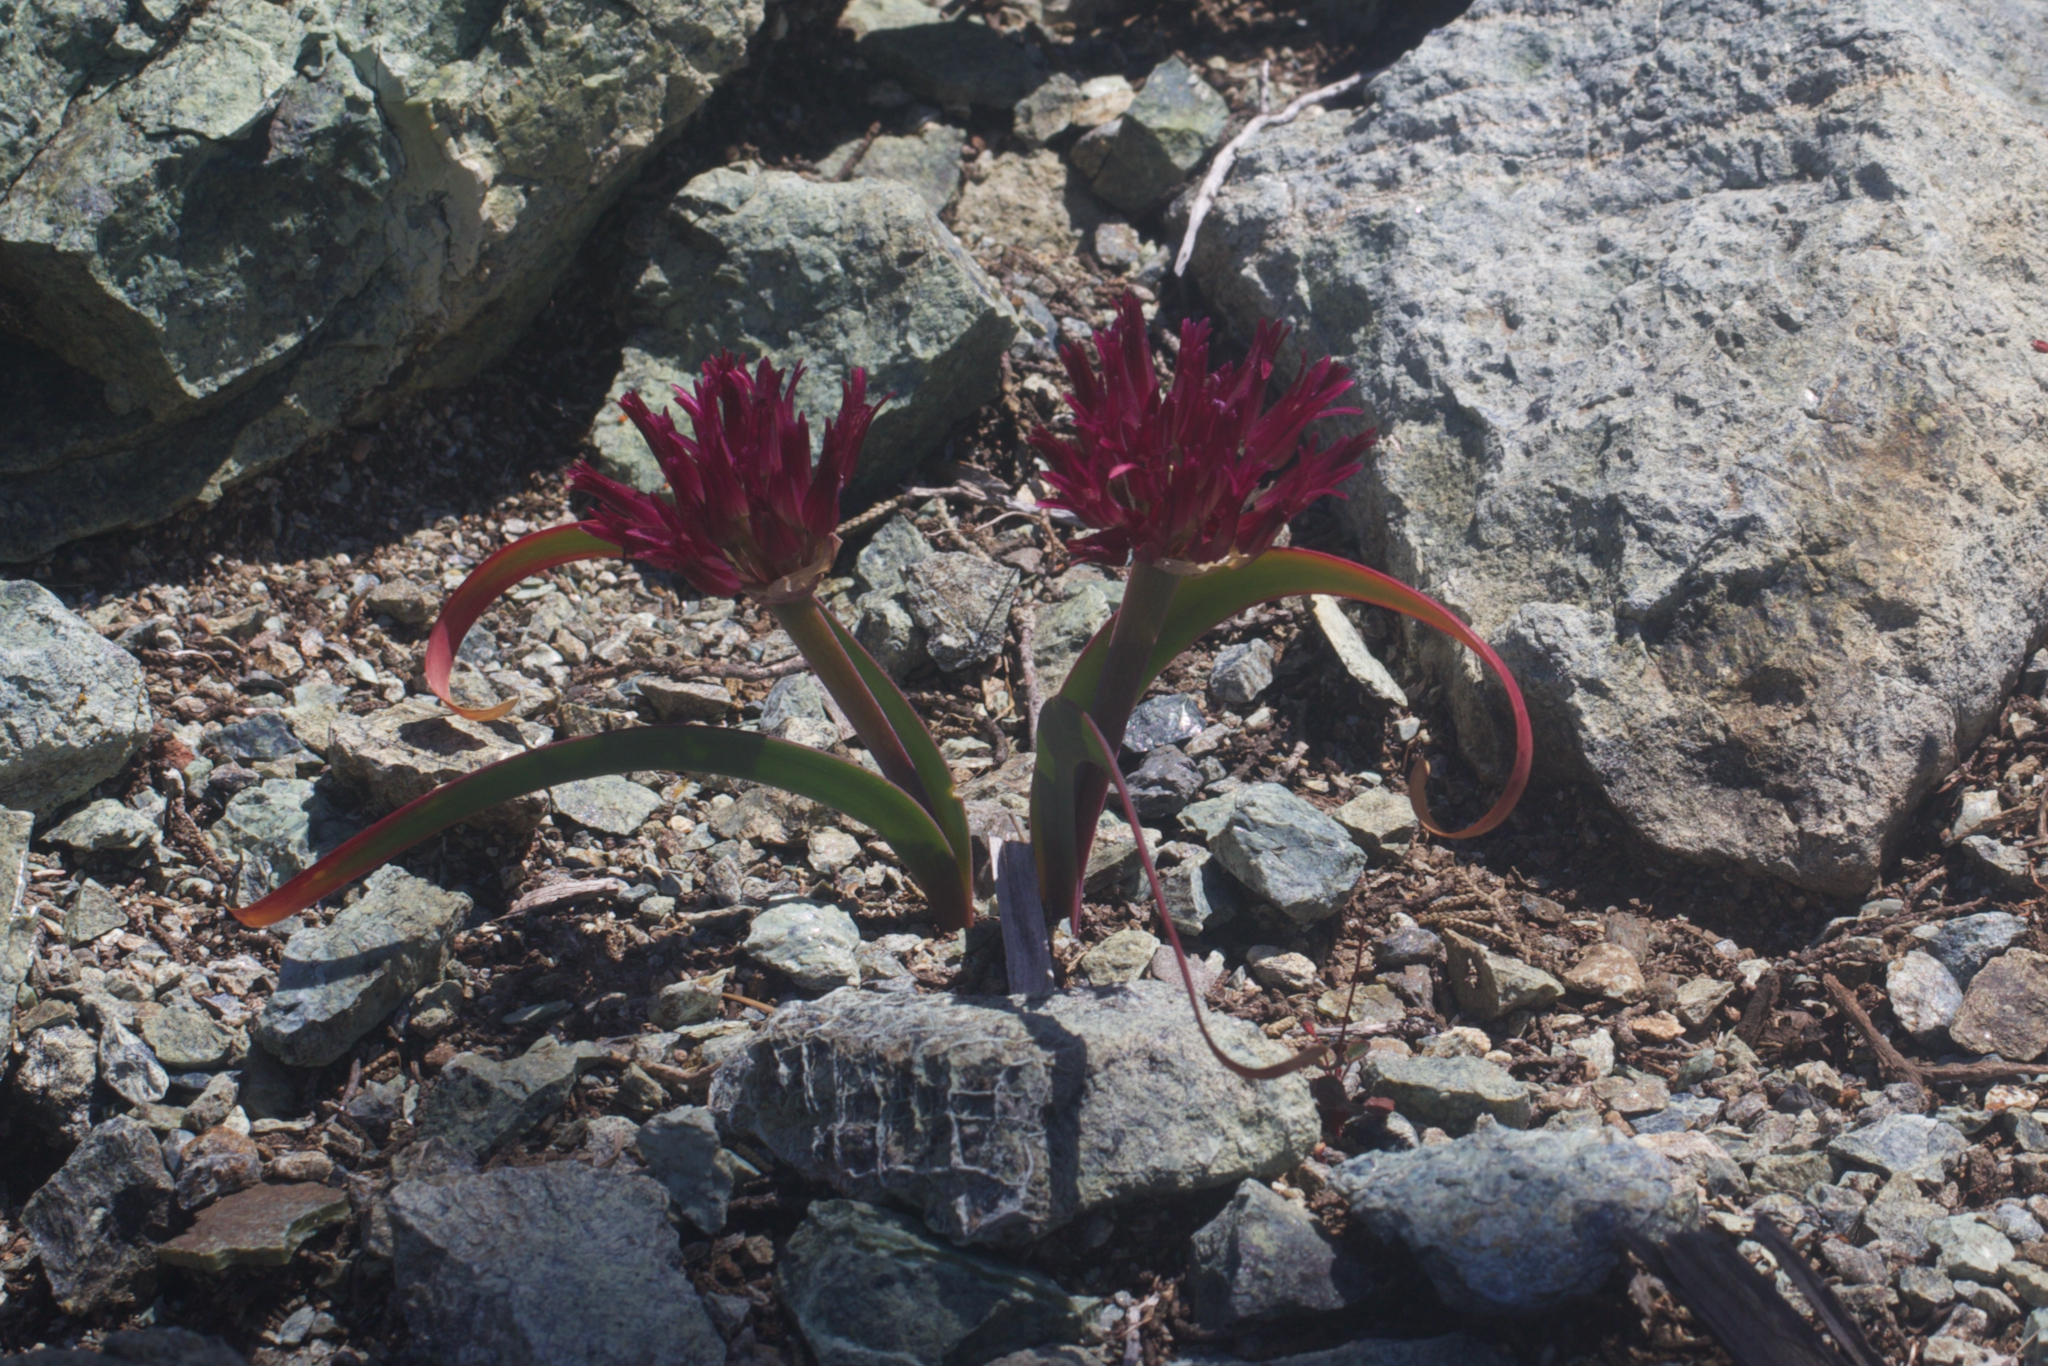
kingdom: Plantae
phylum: Tracheophyta
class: Liliopsida
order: Asparagales
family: Amaryllidaceae
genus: Allium
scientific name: Allium falcifolium
